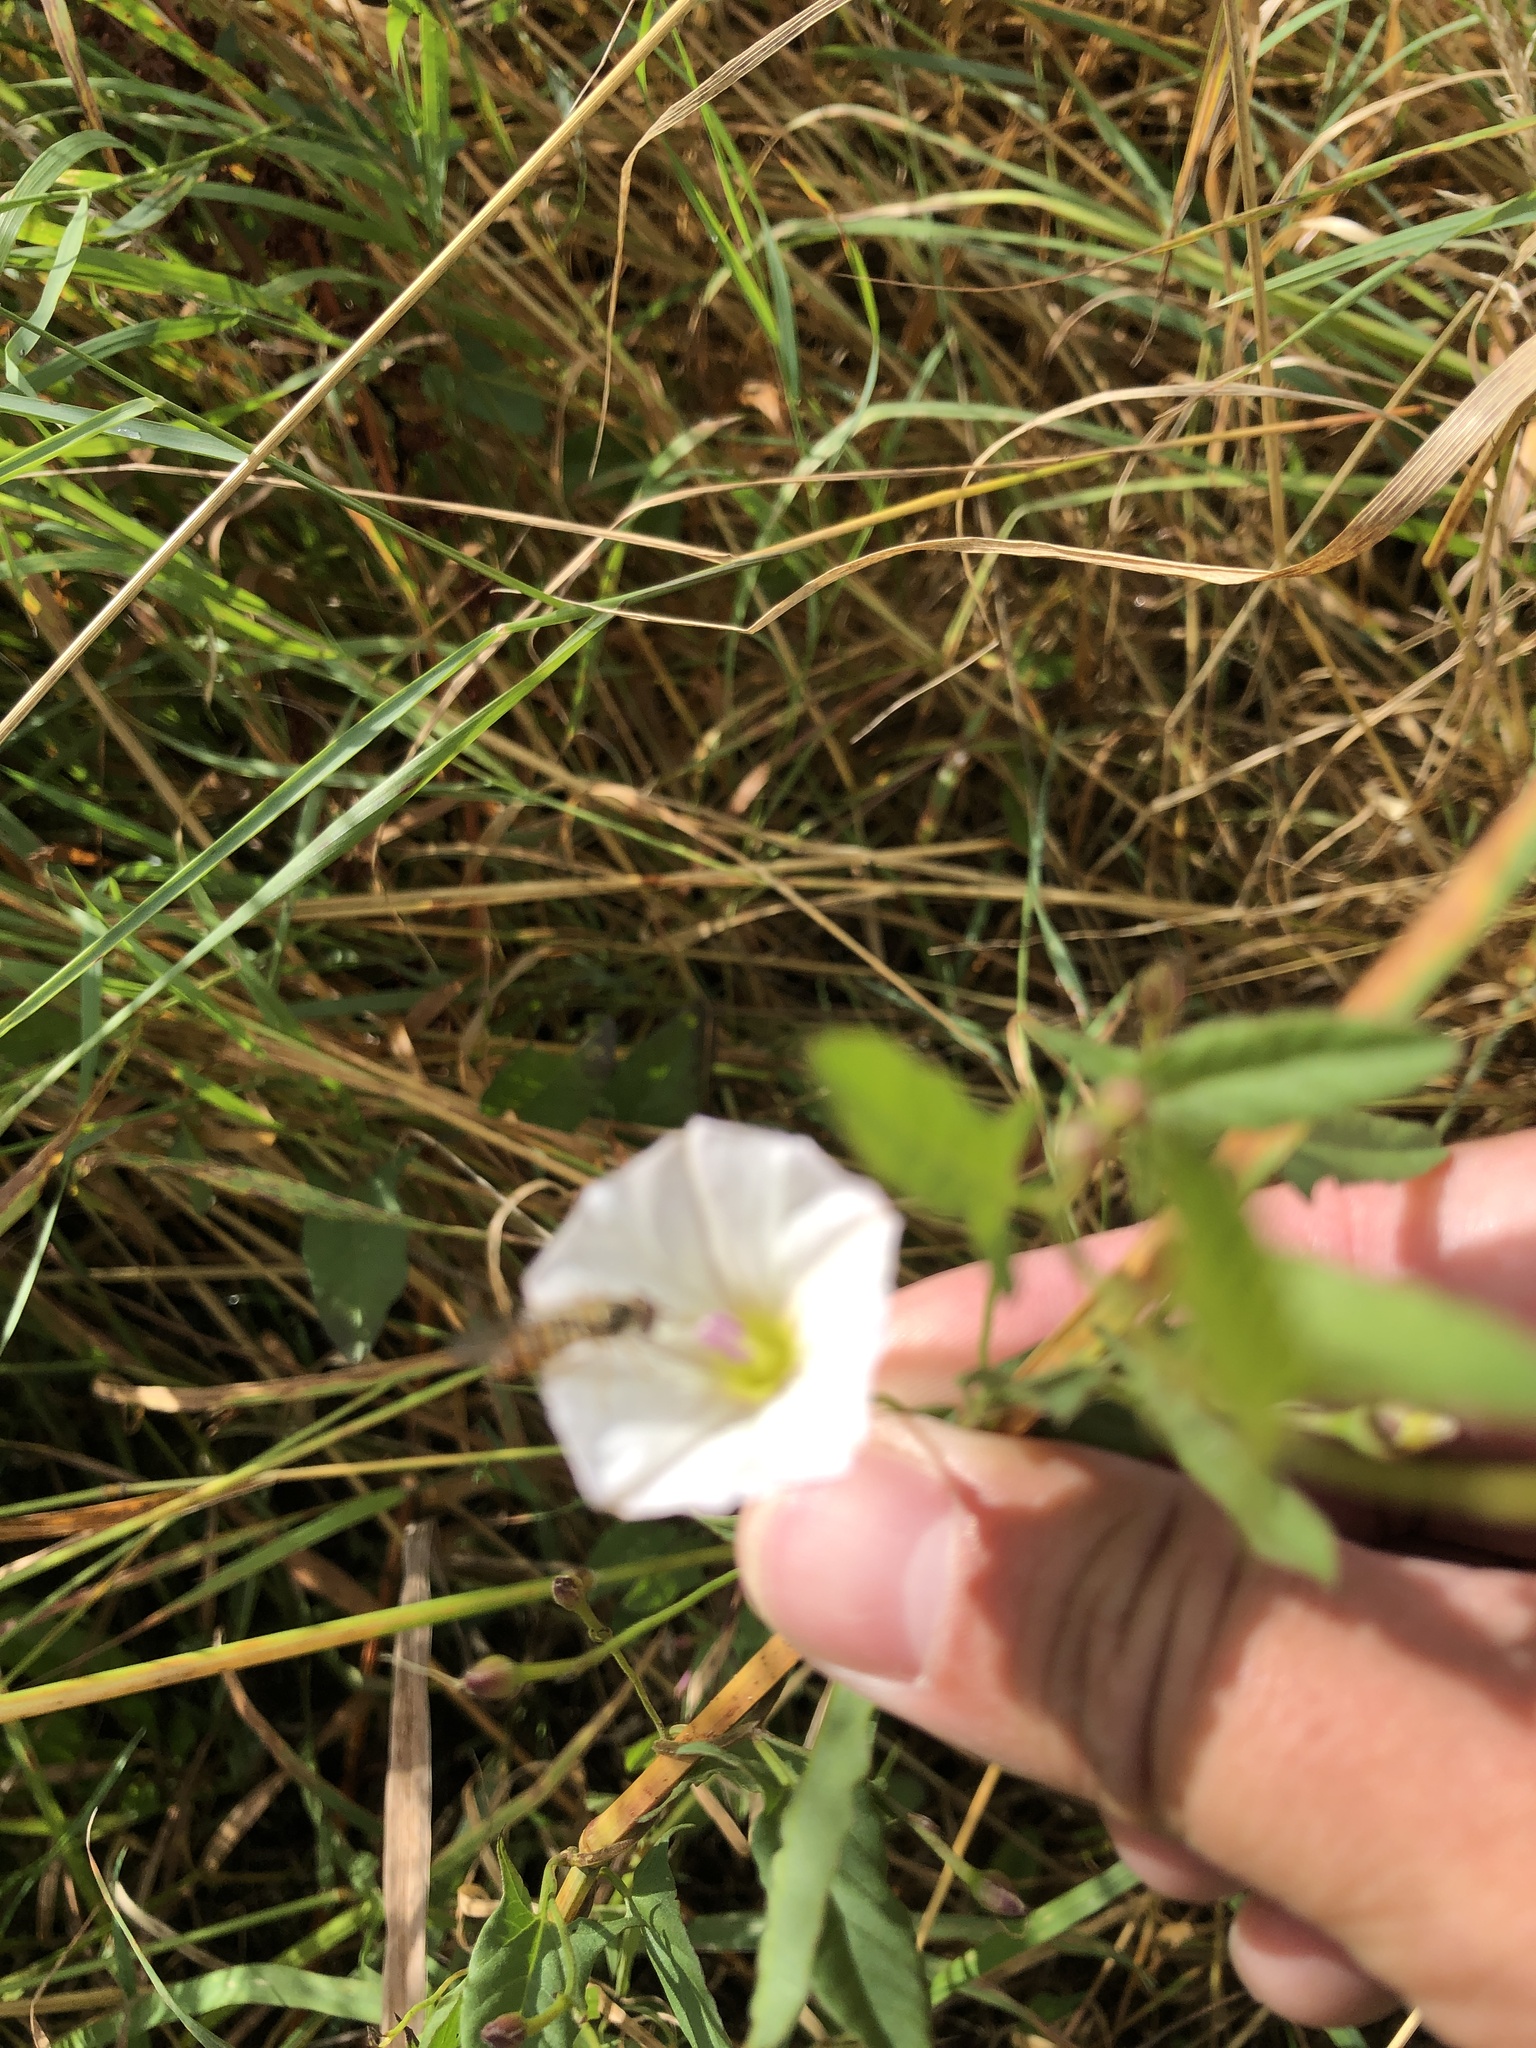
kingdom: Plantae
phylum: Tracheophyta
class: Magnoliopsida
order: Solanales
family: Convolvulaceae
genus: Convolvulus
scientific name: Convolvulus arvensis
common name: Field bindweed
